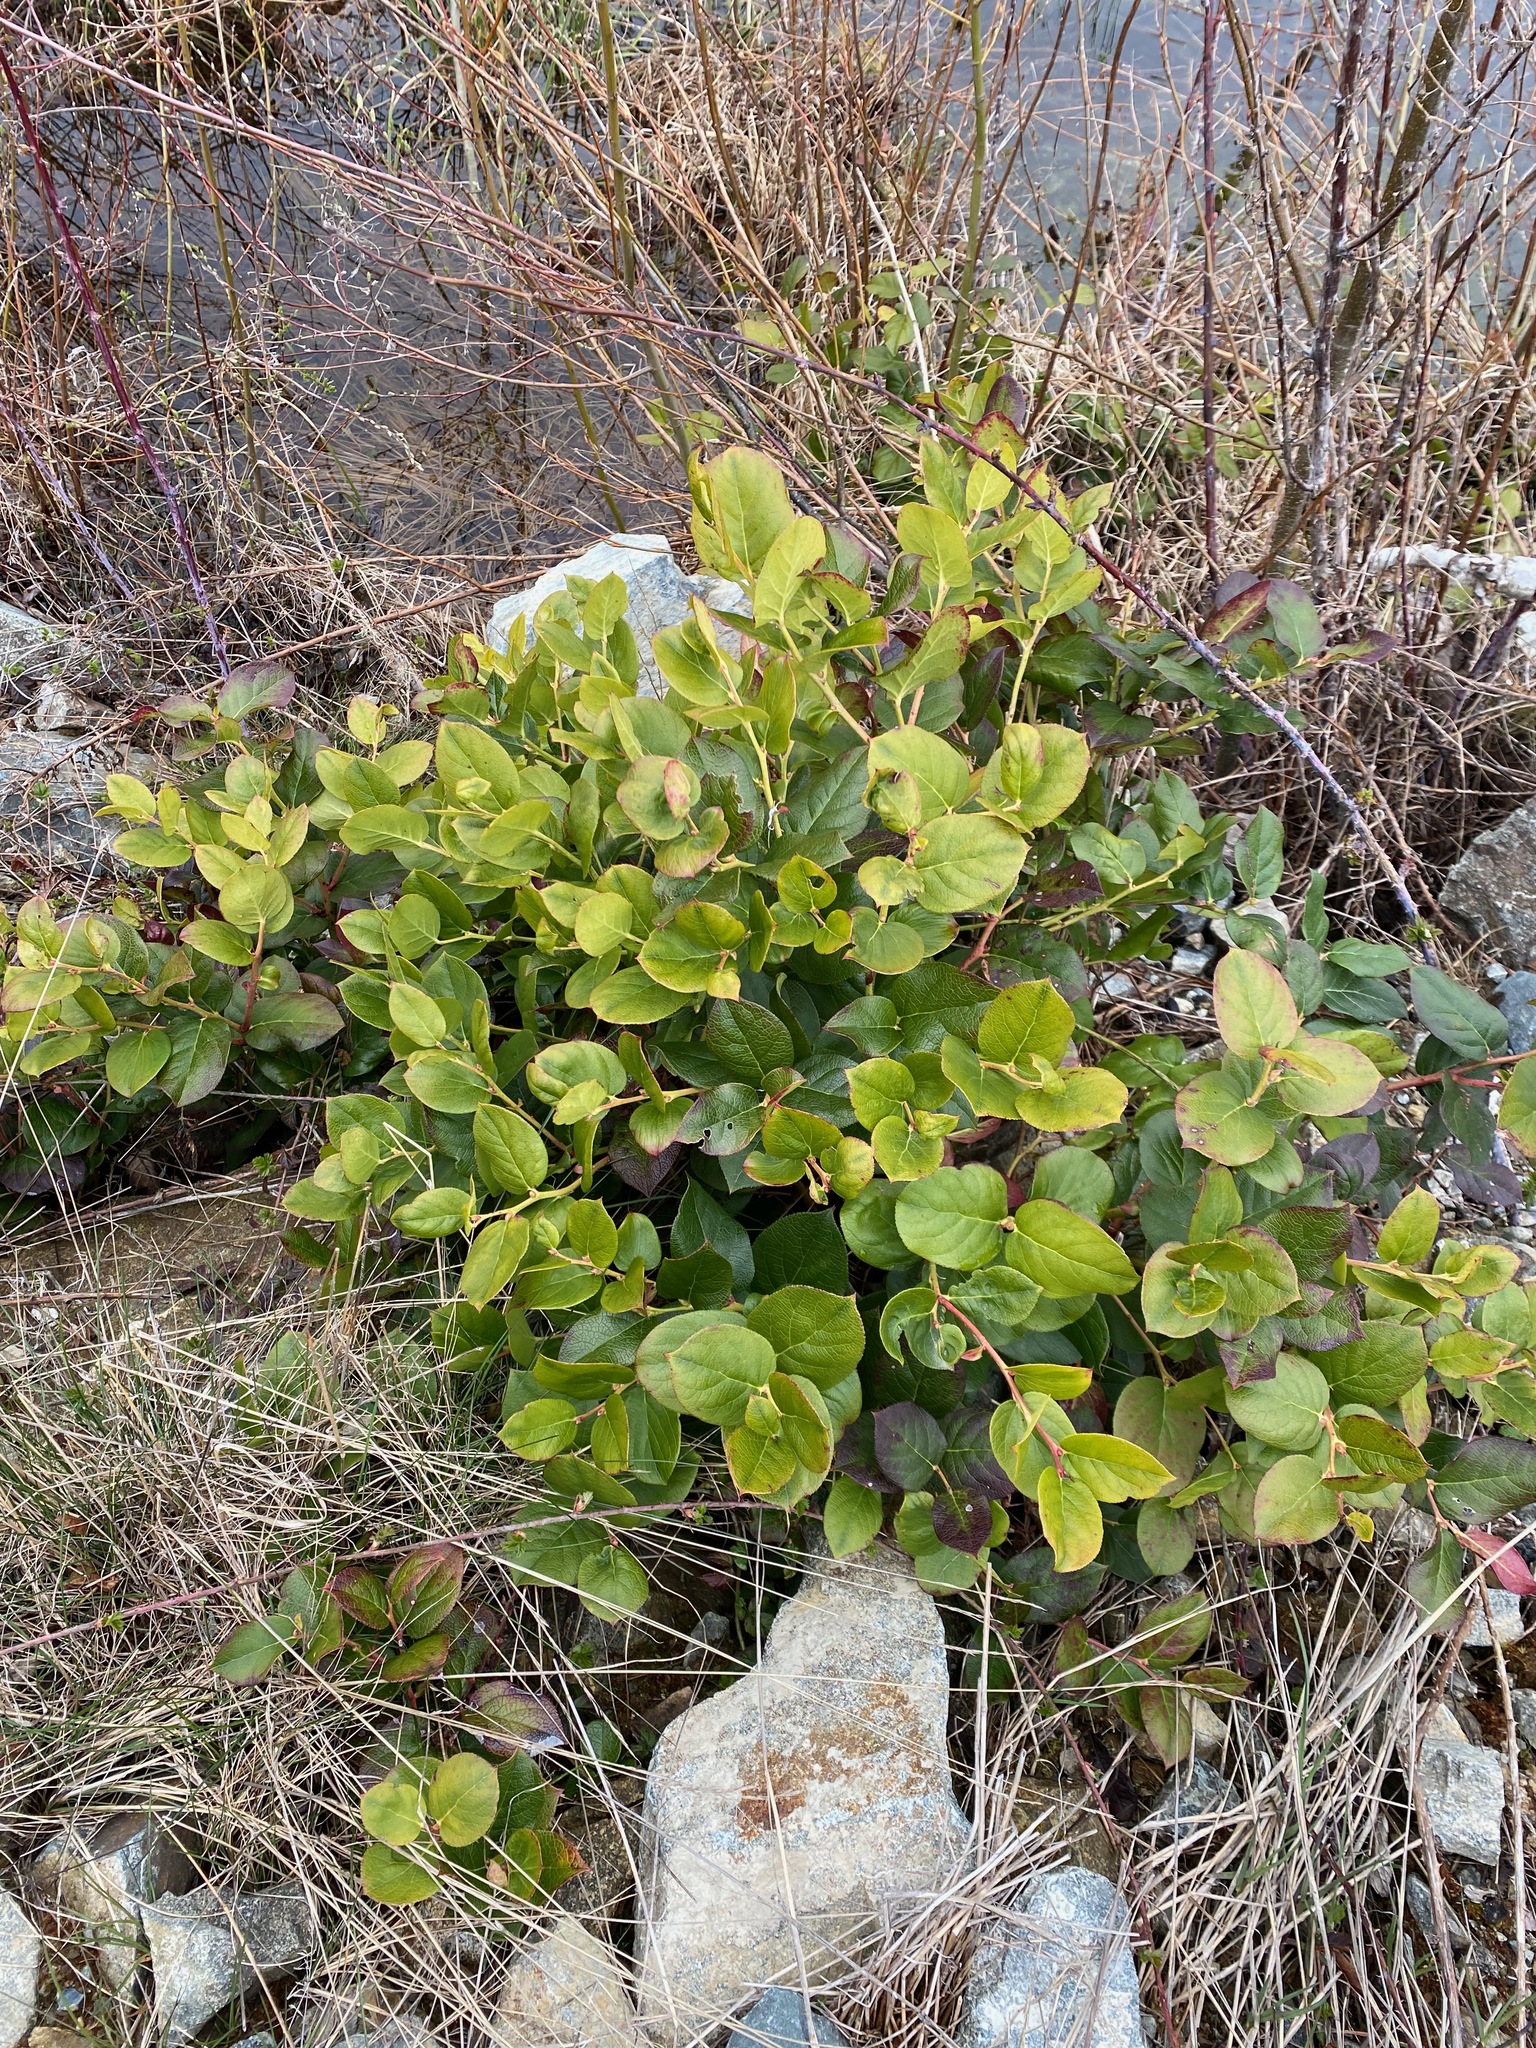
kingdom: Plantae
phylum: Tracheophyta
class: Magnoliopsida
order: Ericales
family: Ericaceae
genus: Gaultheria
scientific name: Gaultheria shallon
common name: Shallon
